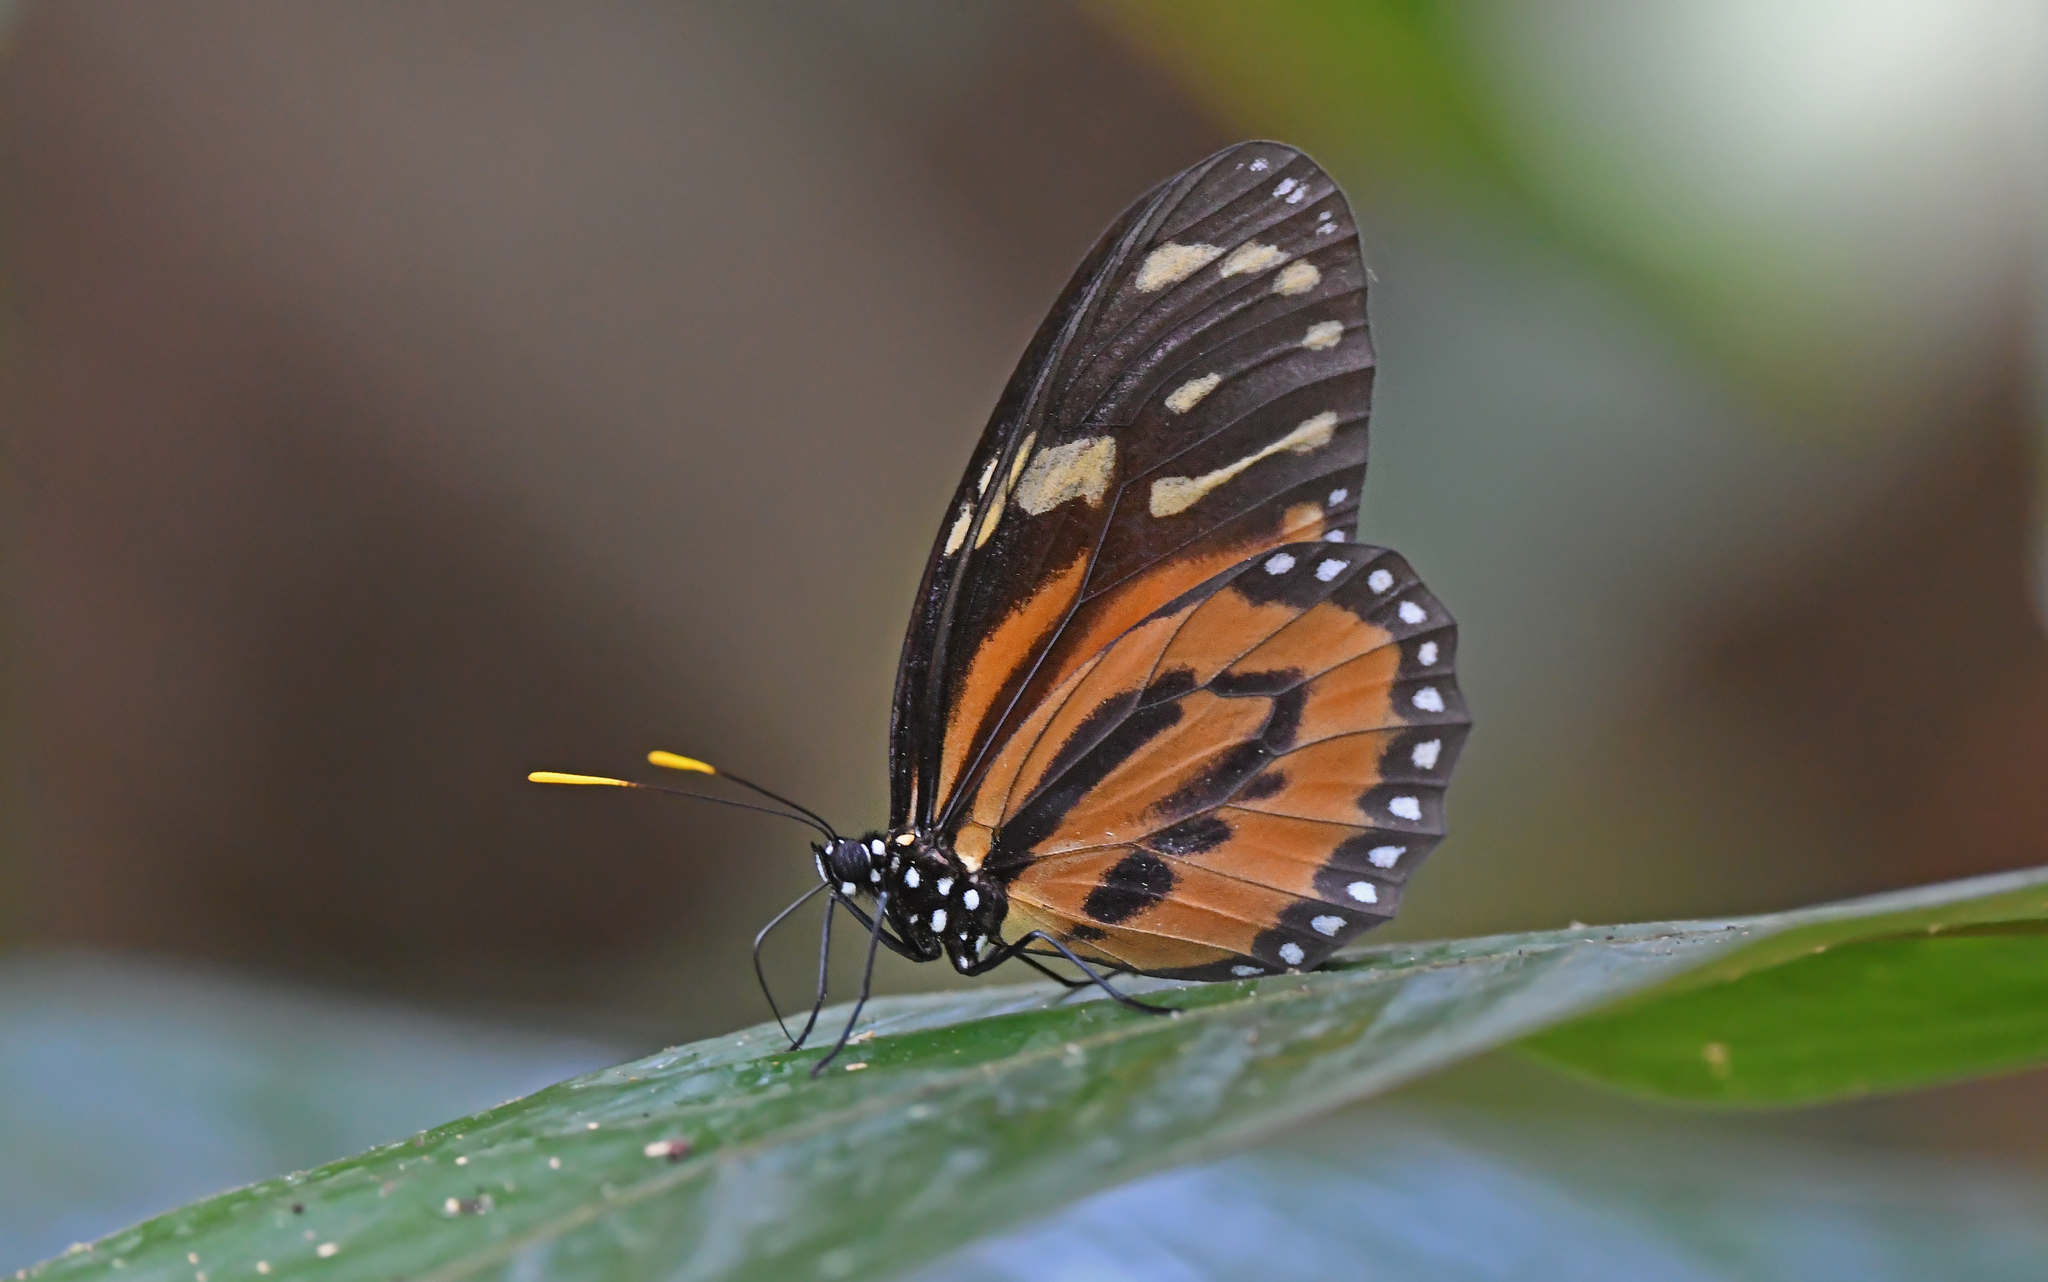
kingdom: Animalia
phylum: Arthropoda
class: Insecta
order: Lepidoptera
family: Nymphalidae
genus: Lycorea
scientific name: Lycorea cleobaea
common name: Tiger mimic-queen
